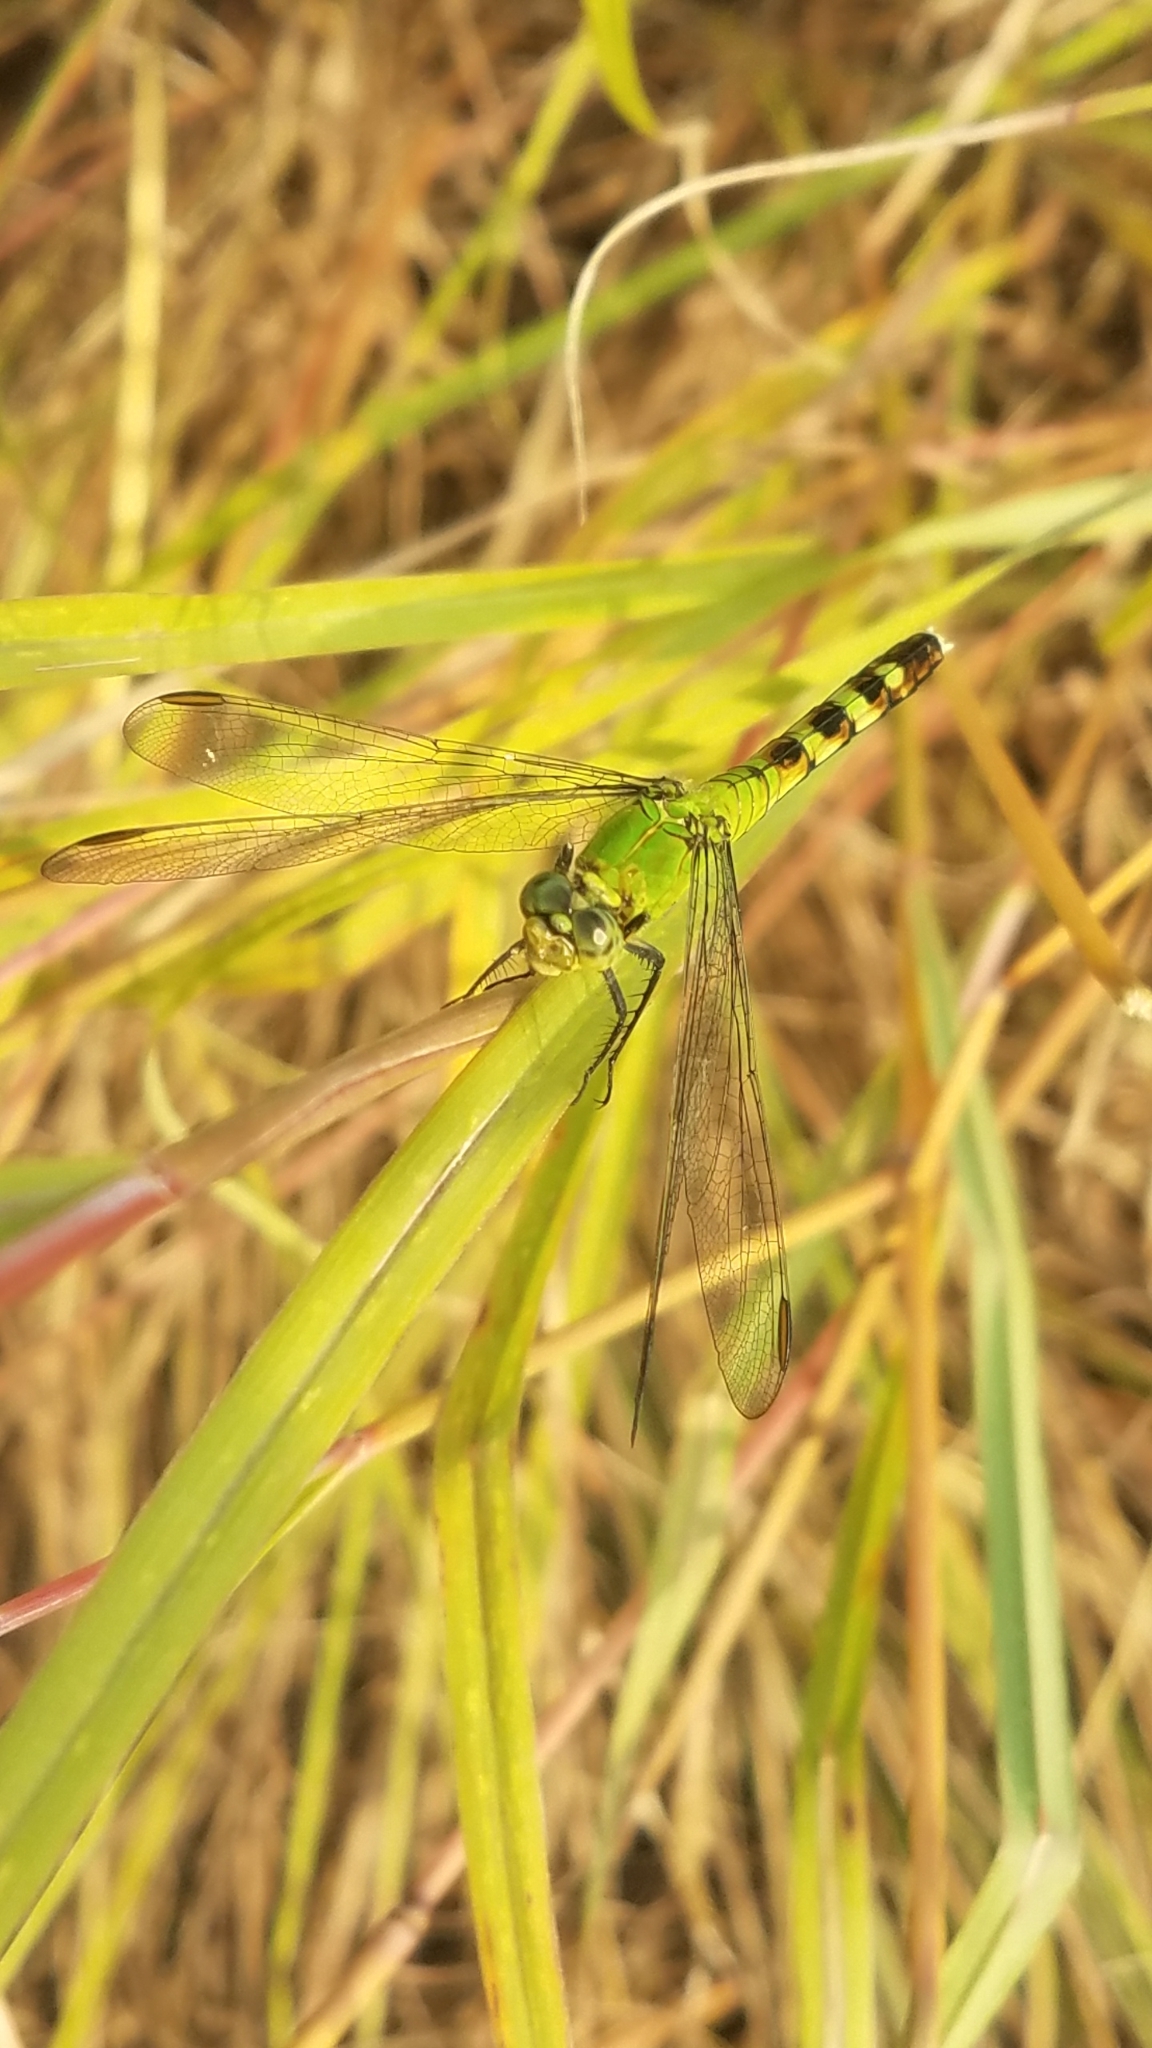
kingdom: Animalia
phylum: Arthropoda
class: Insecta
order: Odonata
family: Libellulidae
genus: Erythemis
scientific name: Erythemis simplicicollis
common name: Eastern pondhawk
